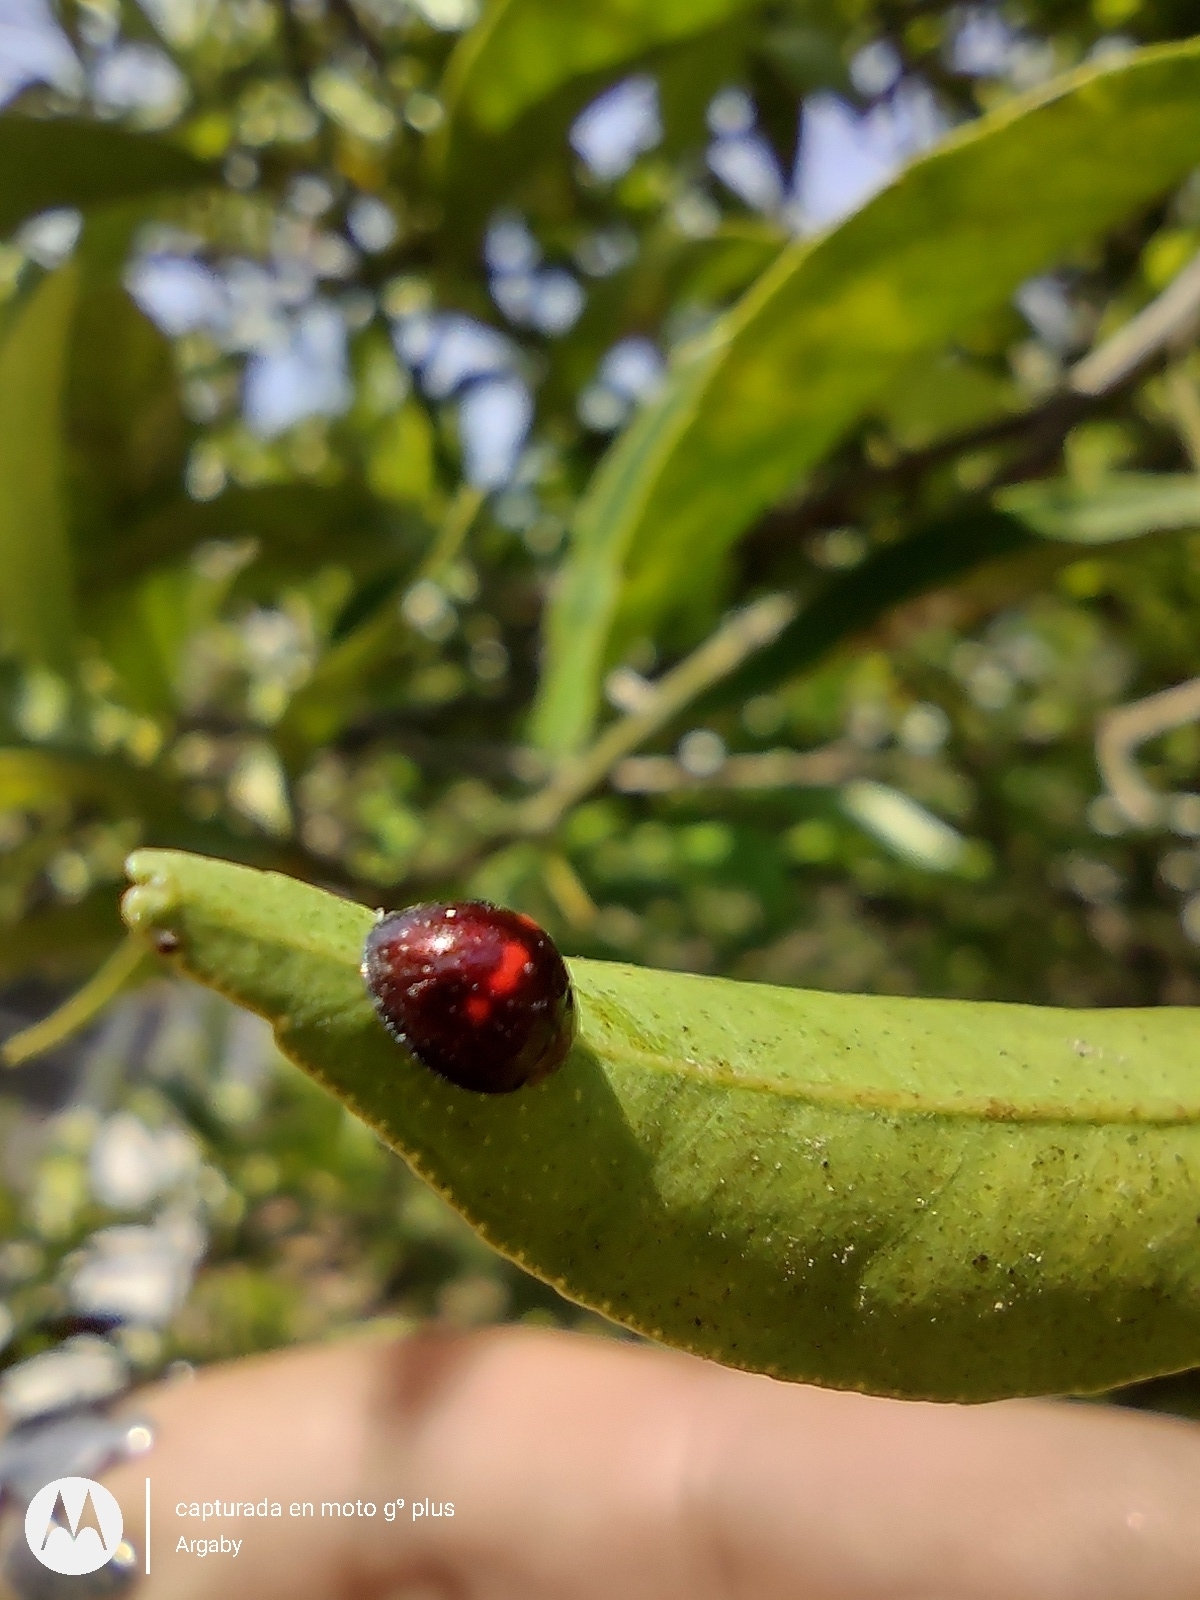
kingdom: Animalia
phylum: Arthropoda
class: Insecta
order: Coleoptera
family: Coccinellidae
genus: Chilocorus
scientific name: Chilocorus bipustulatus
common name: Heather ladybird
